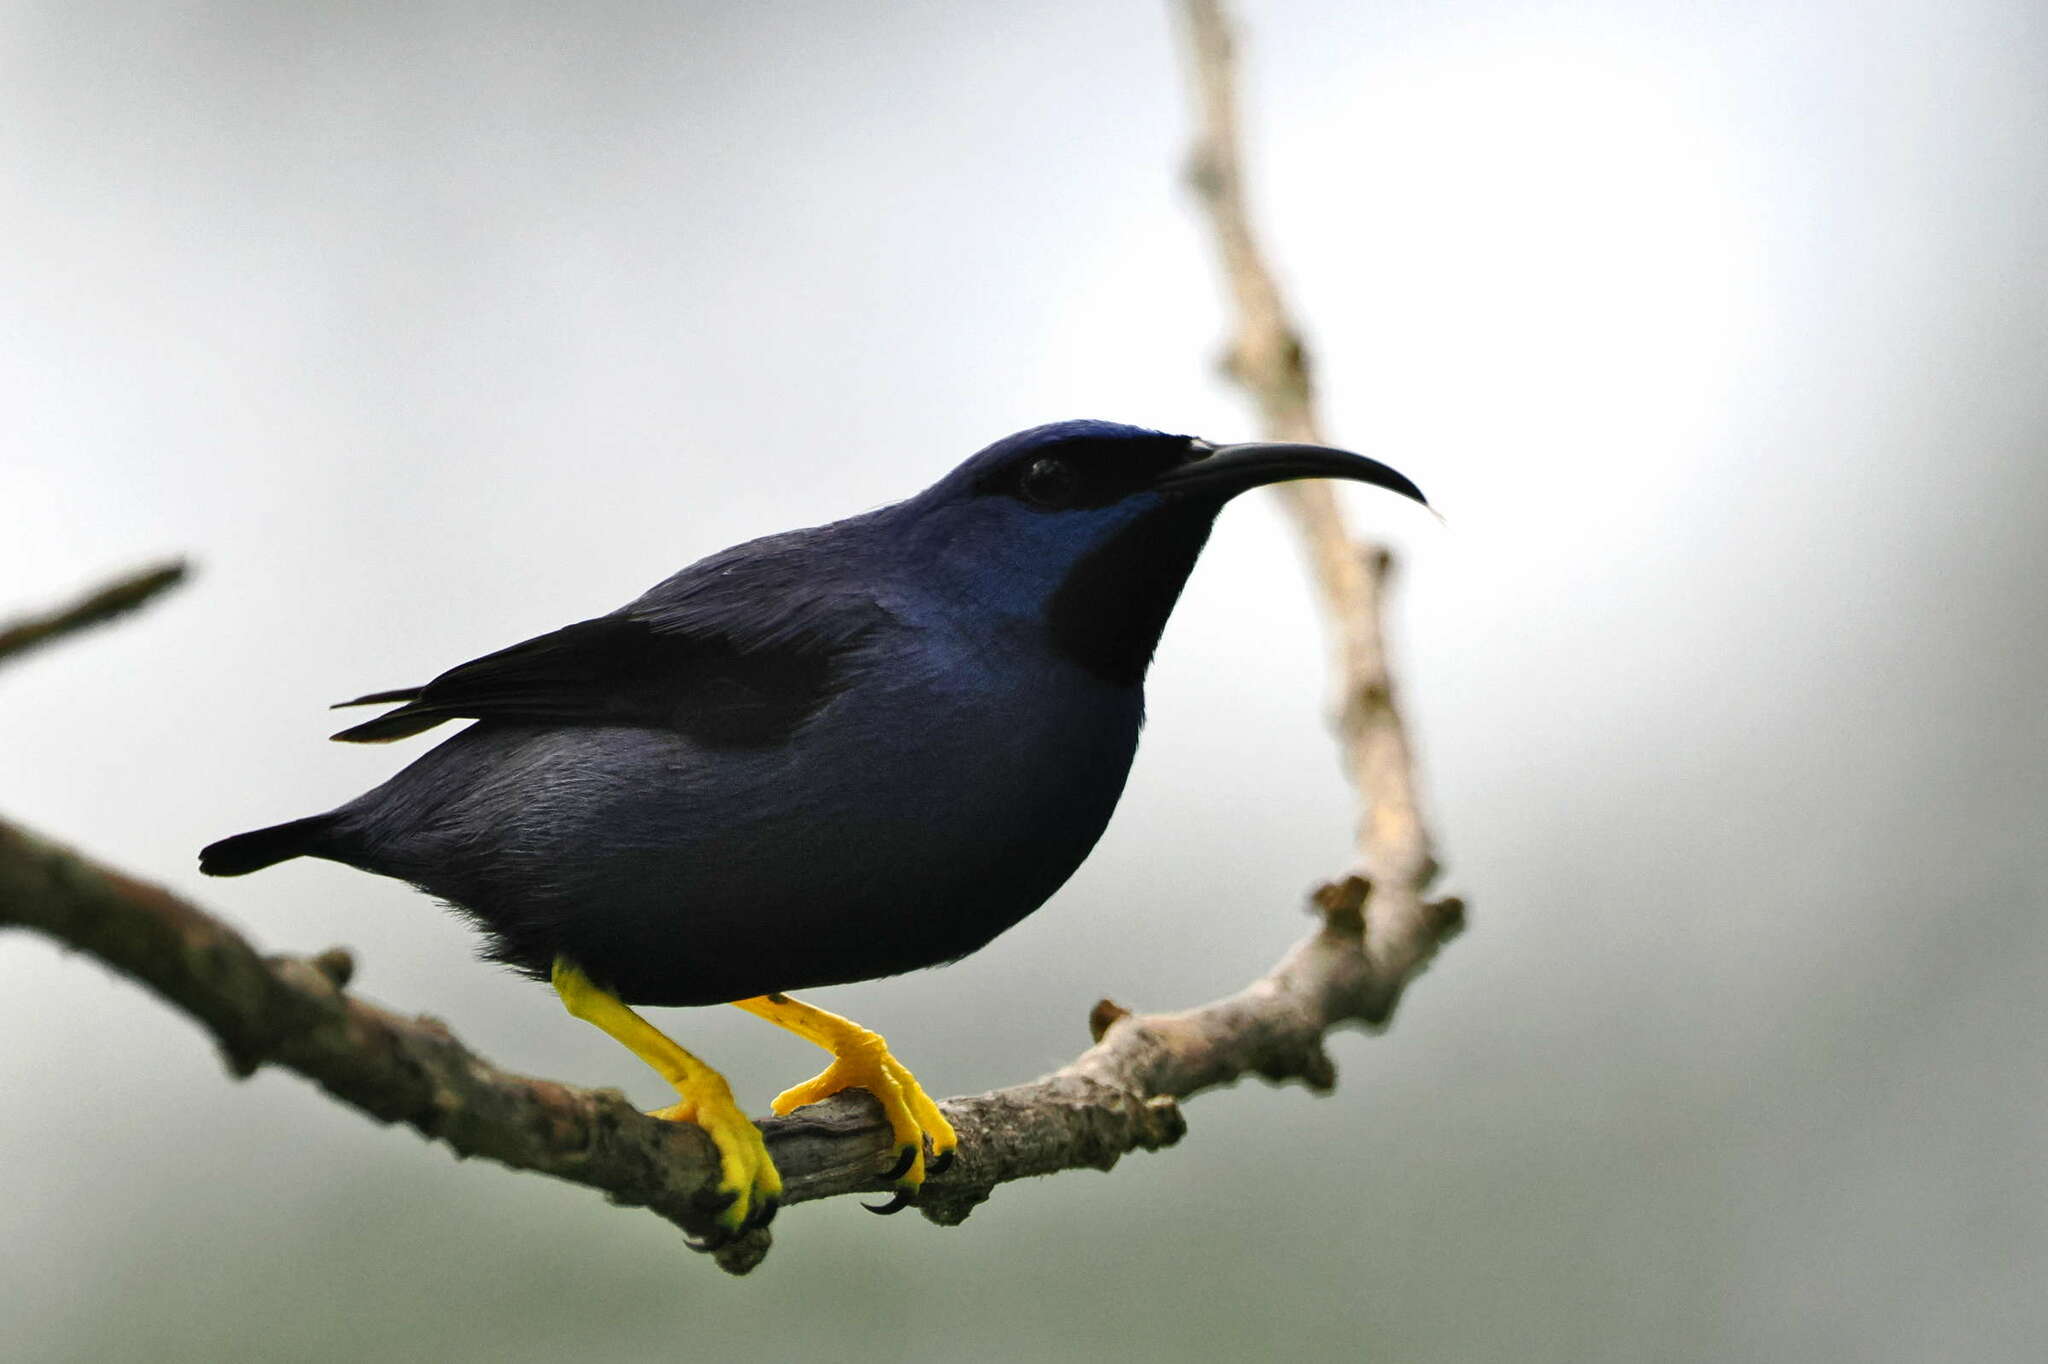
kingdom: Animalia
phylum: Chordata
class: Aves
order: Passeriformes
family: Thraupidae
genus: Cyanerpes
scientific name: Cyanerpes caeruleus
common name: Purple honeycreeper
